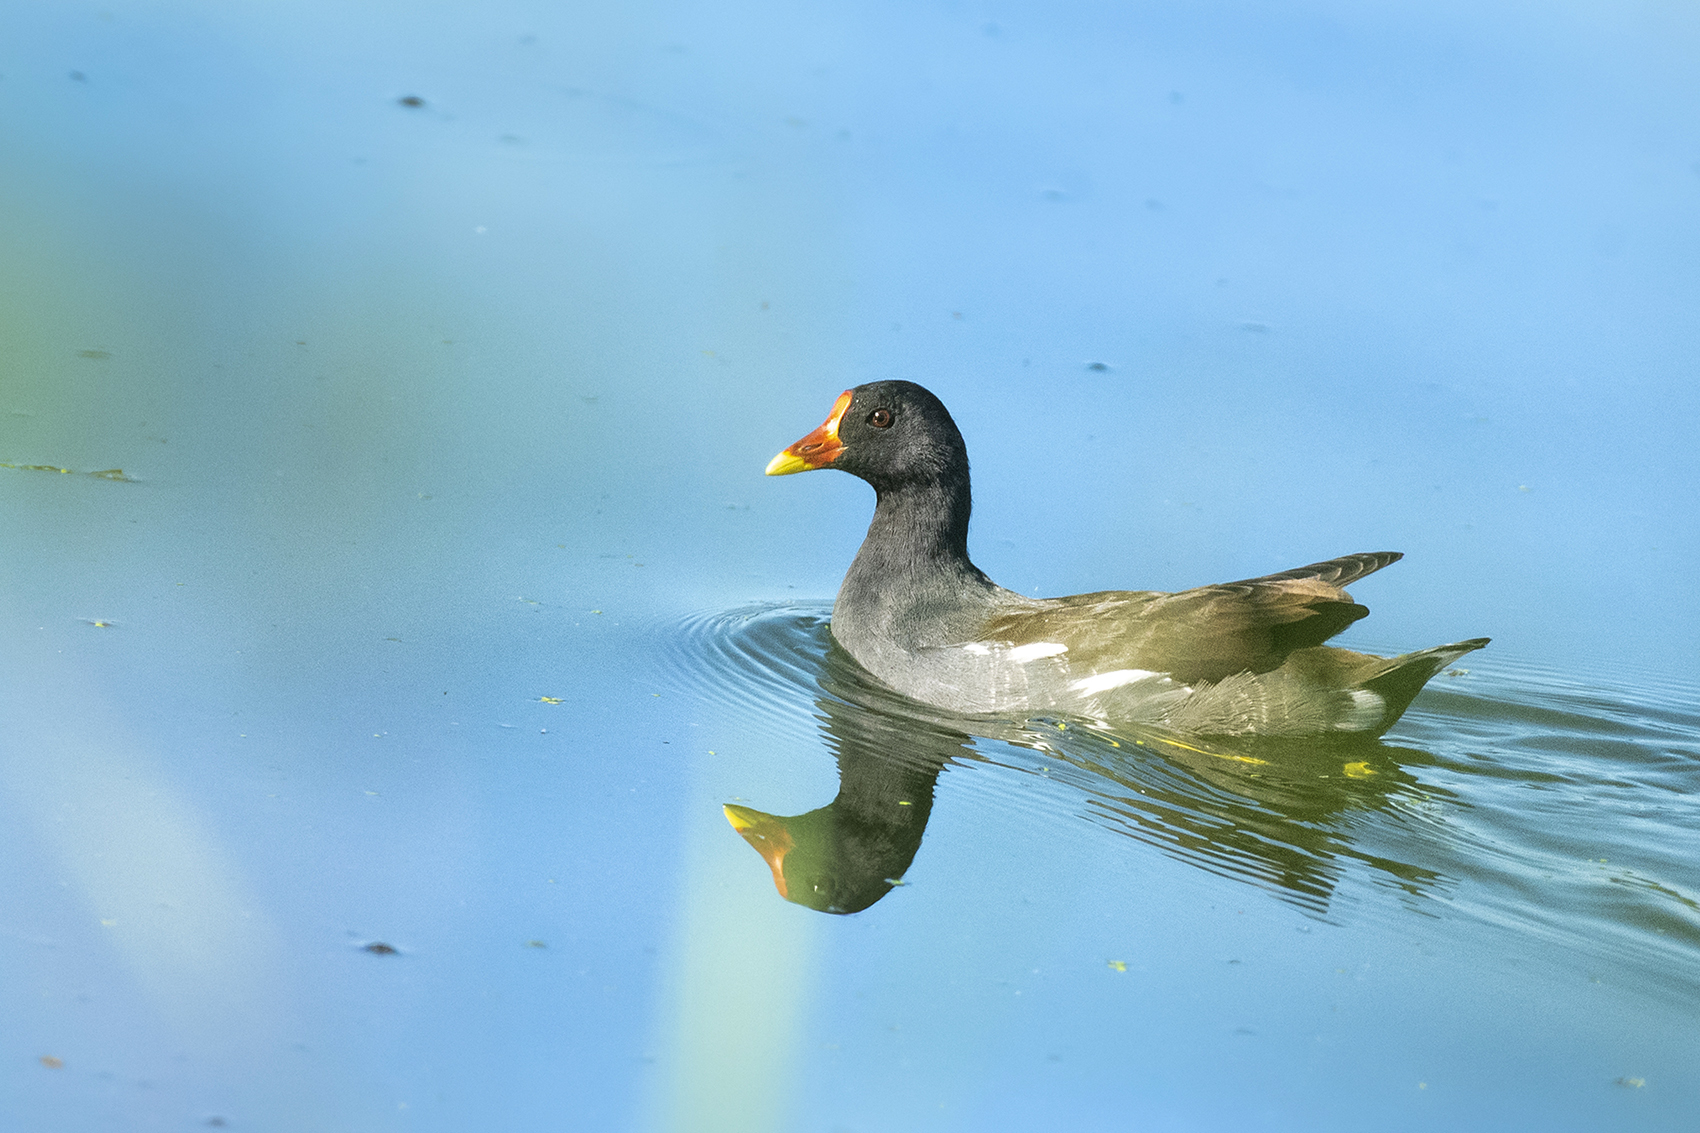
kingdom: Animalia
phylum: Chordata
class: Aves
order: Gruiformes
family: Rallidae
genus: Gallinula
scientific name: Gallinula chloropus
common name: Common moorhen
